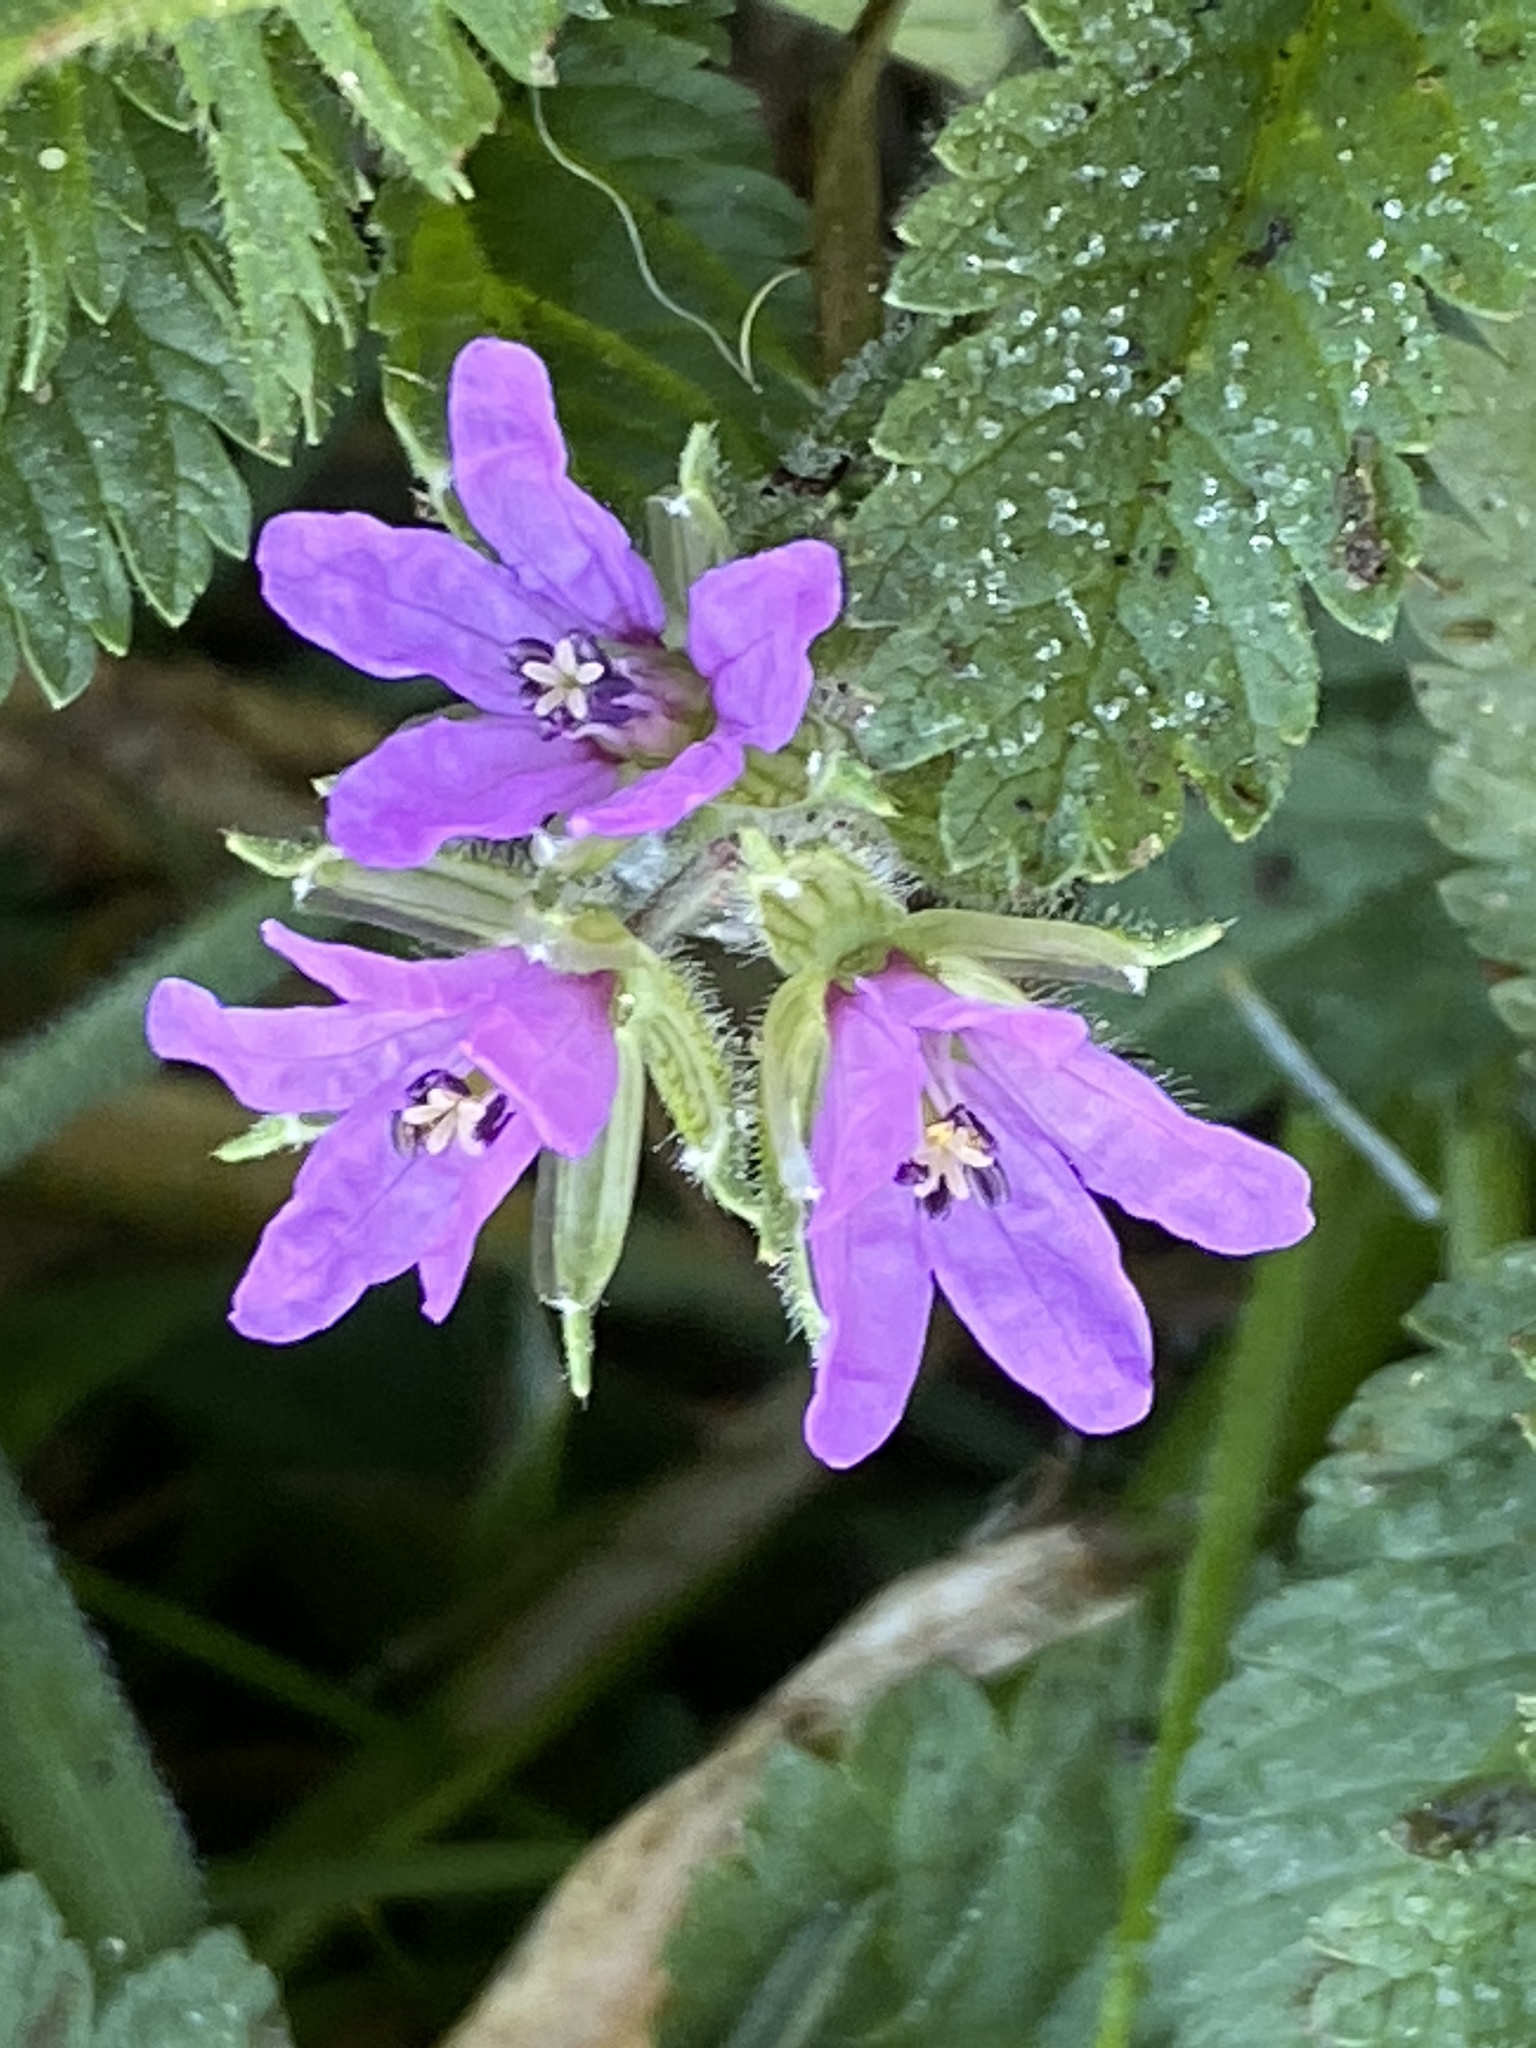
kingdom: Plantae
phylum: Tracheophyta
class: Magnoliopsida
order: Geraniales
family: Geraniaceae
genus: Erodium
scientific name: Erodium moschatum
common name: Musk stork's-bill
